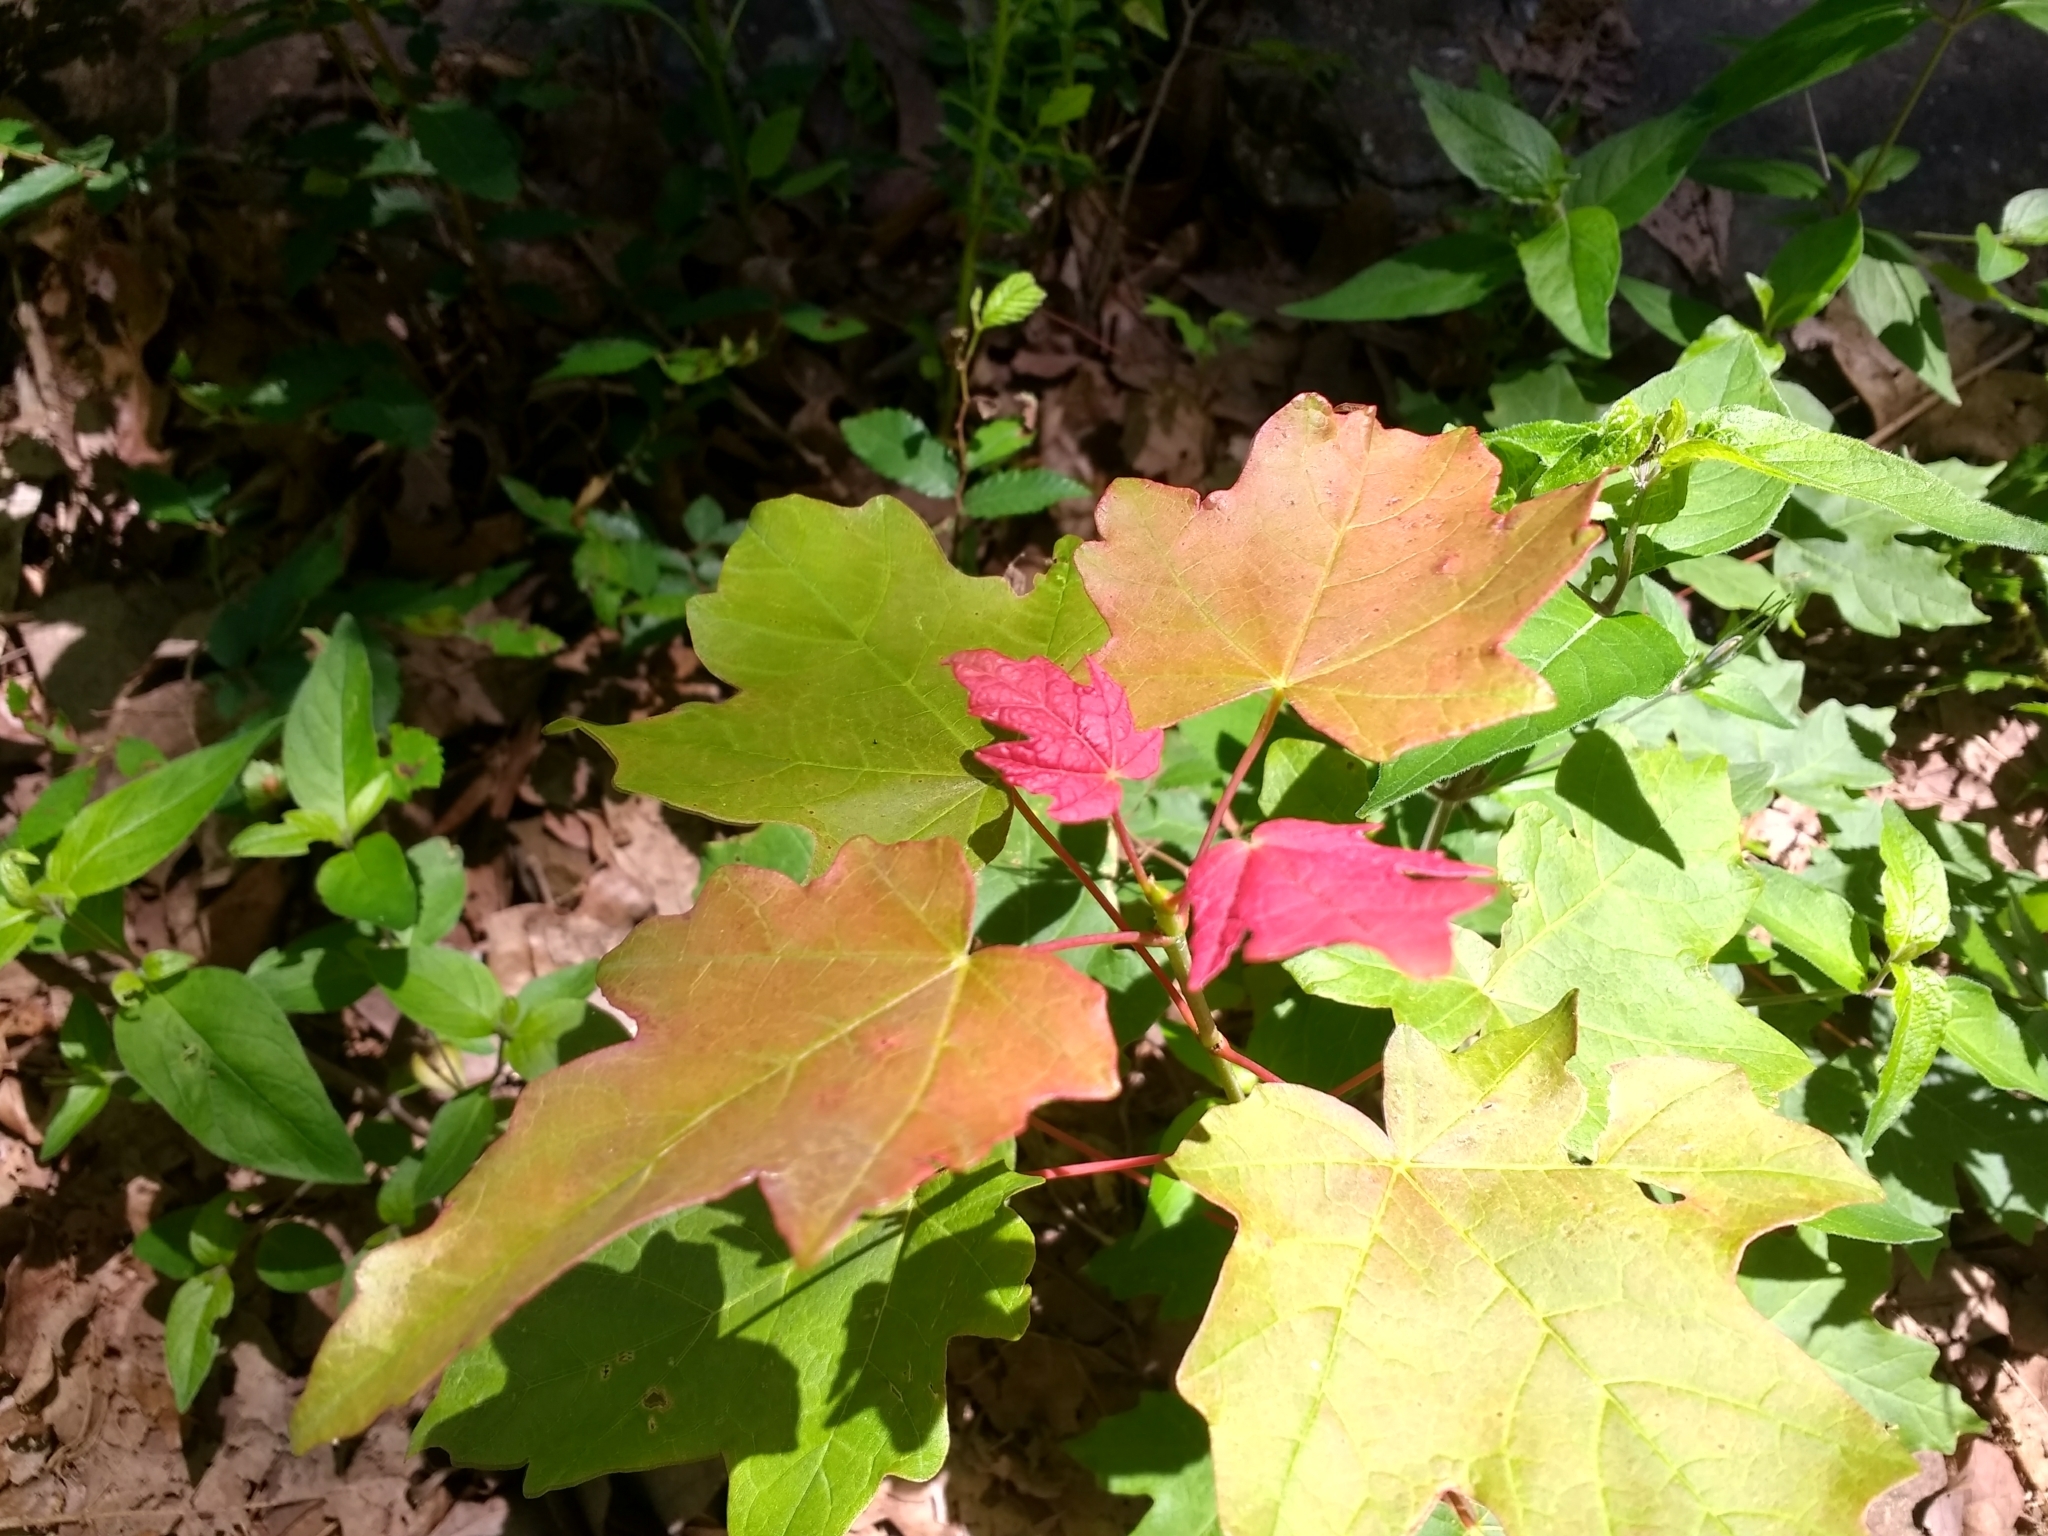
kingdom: Plantae
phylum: Tracheophyta
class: Magnoliopsida
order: Sapindales
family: Sapindaceae
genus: Acer
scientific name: Acer saccharinum
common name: Silver maple
